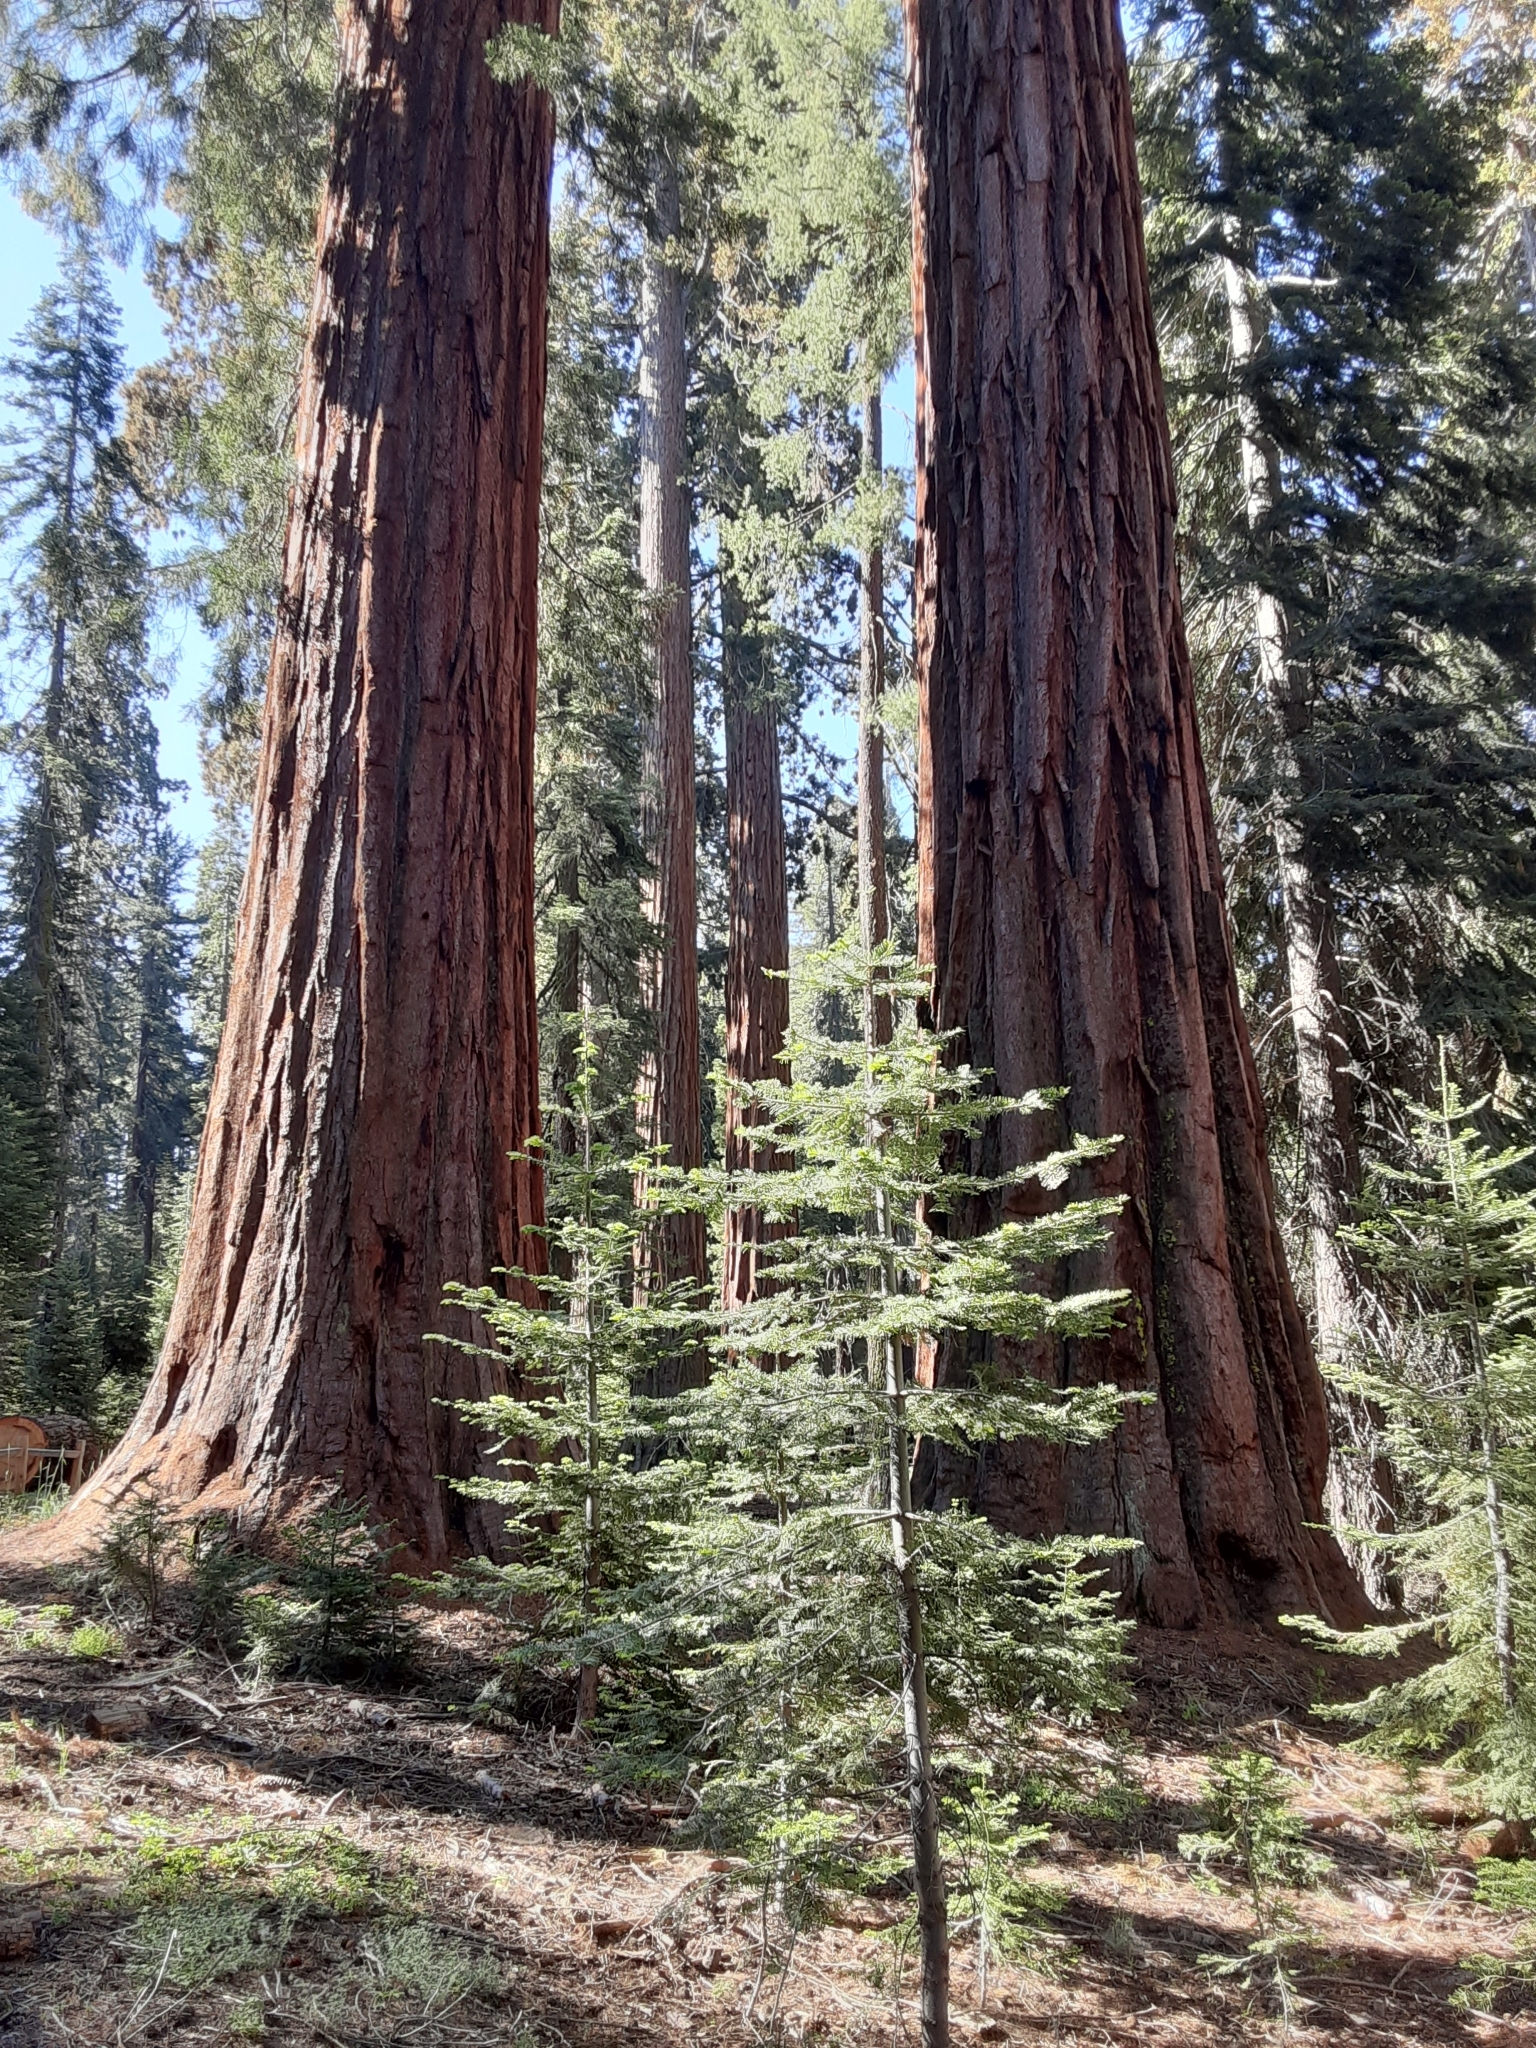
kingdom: Plantae
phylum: Tracheophyta
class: Pinopsida
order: Pinales
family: Cupressaceae
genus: Sequoiadendron
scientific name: Sequoiadendron giganteum
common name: Wellingtonia
